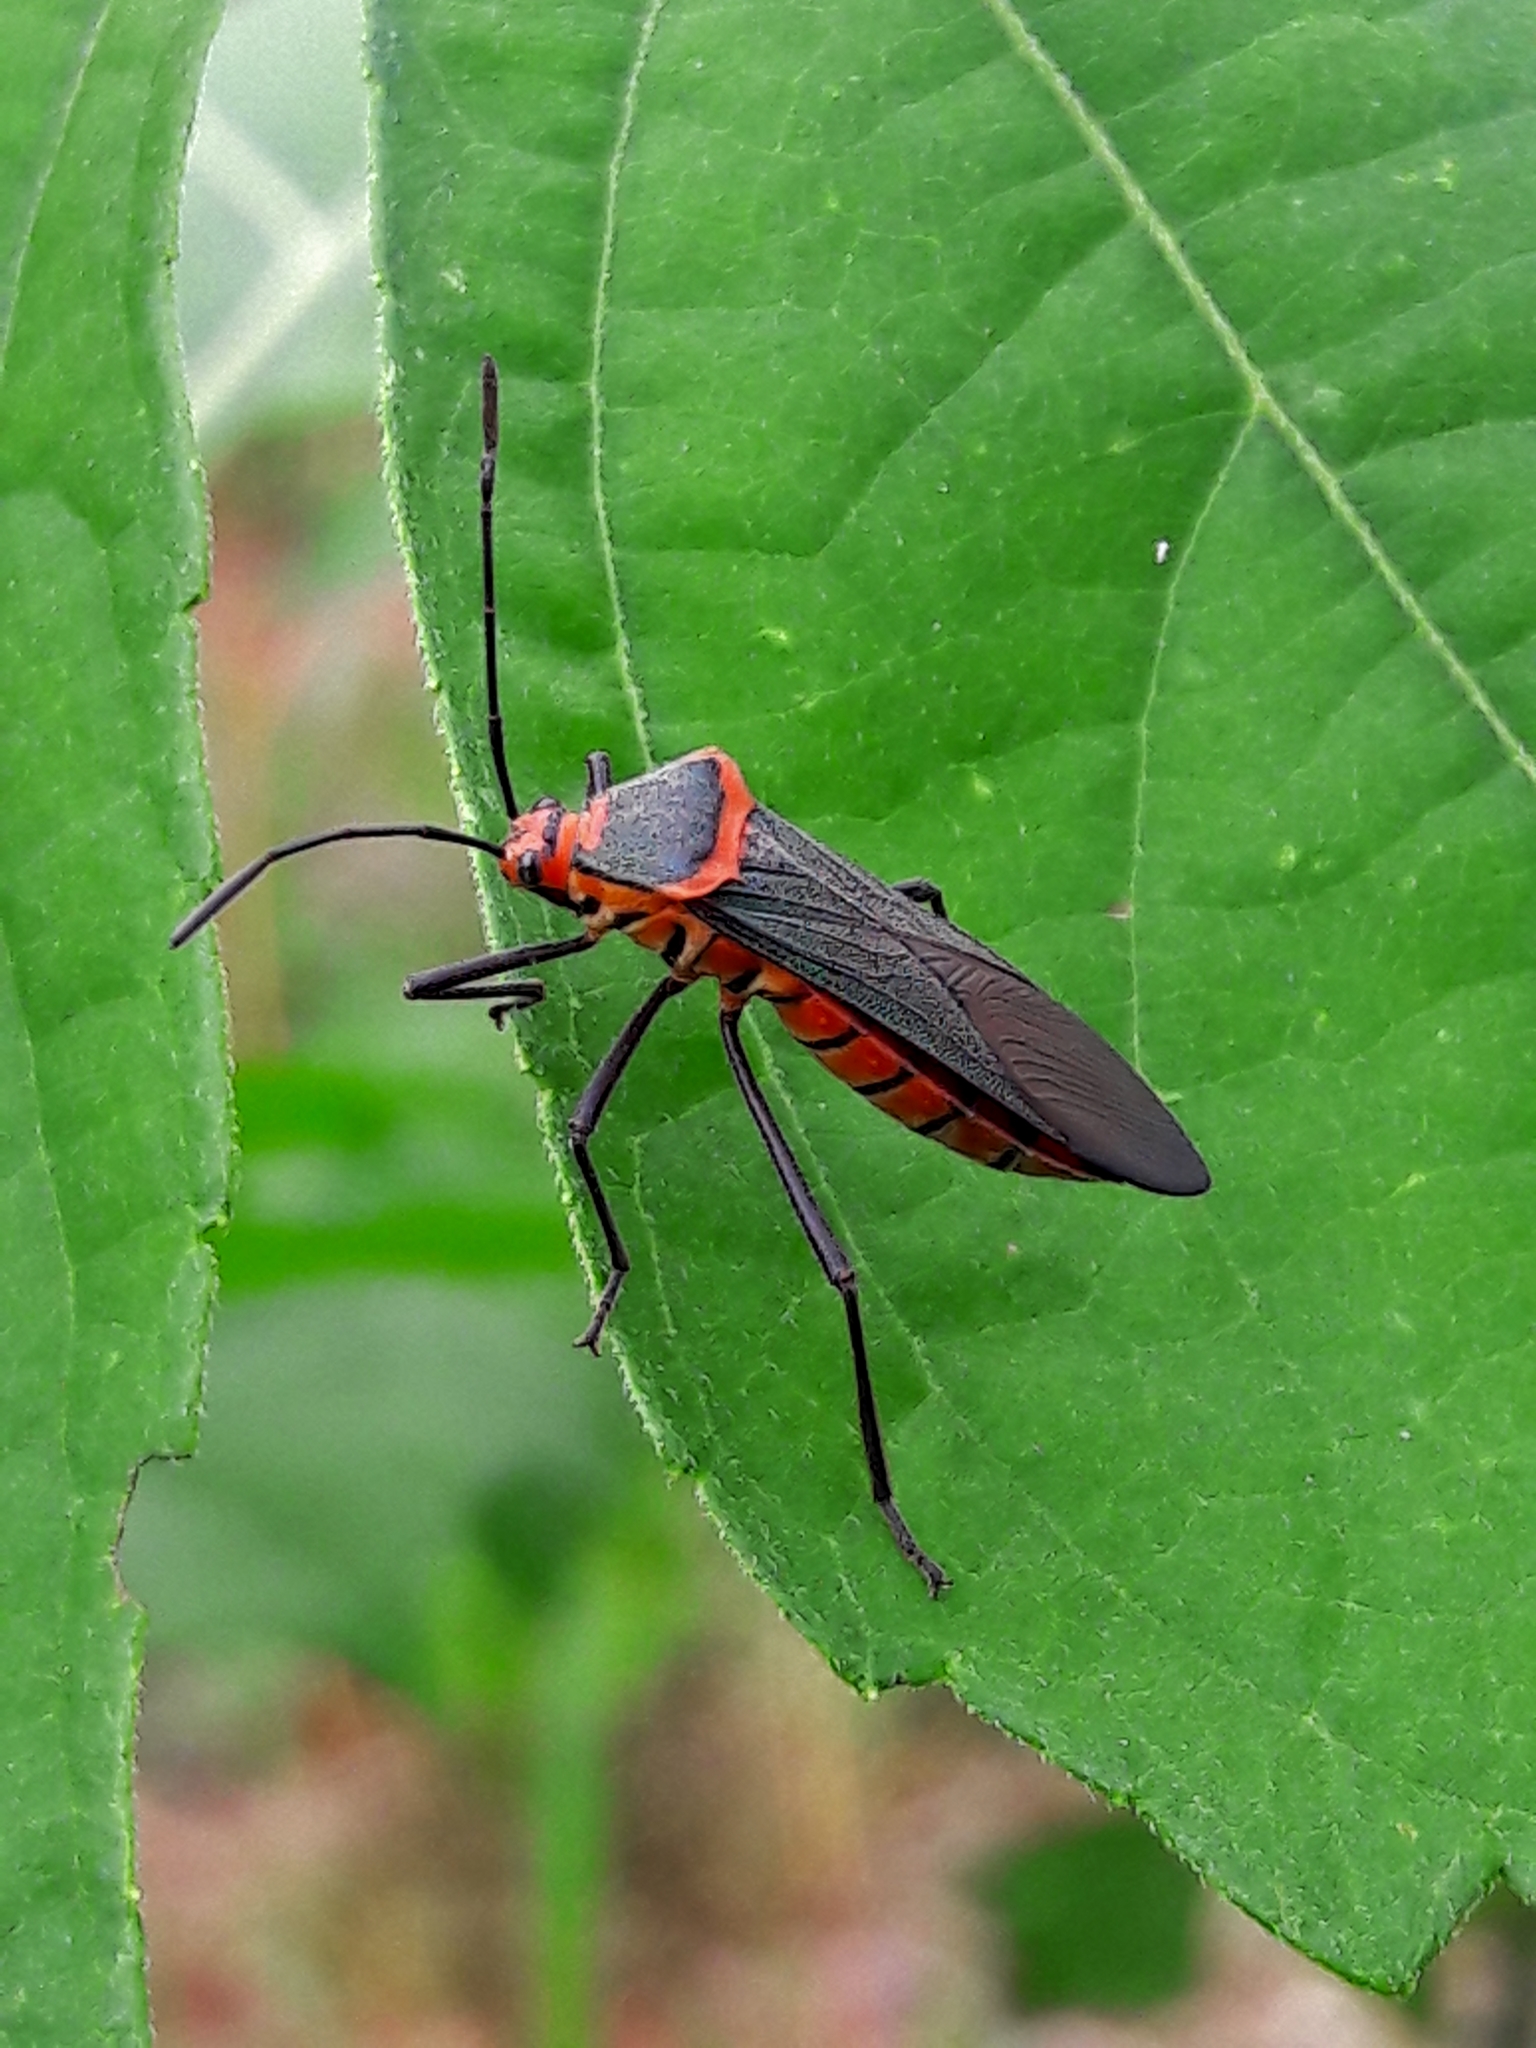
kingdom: Animalia
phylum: Arthropoda
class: Insecta
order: Hemiptera
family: Coreidae
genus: Sphictyrtus
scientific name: Sphictyrtus chrysis
